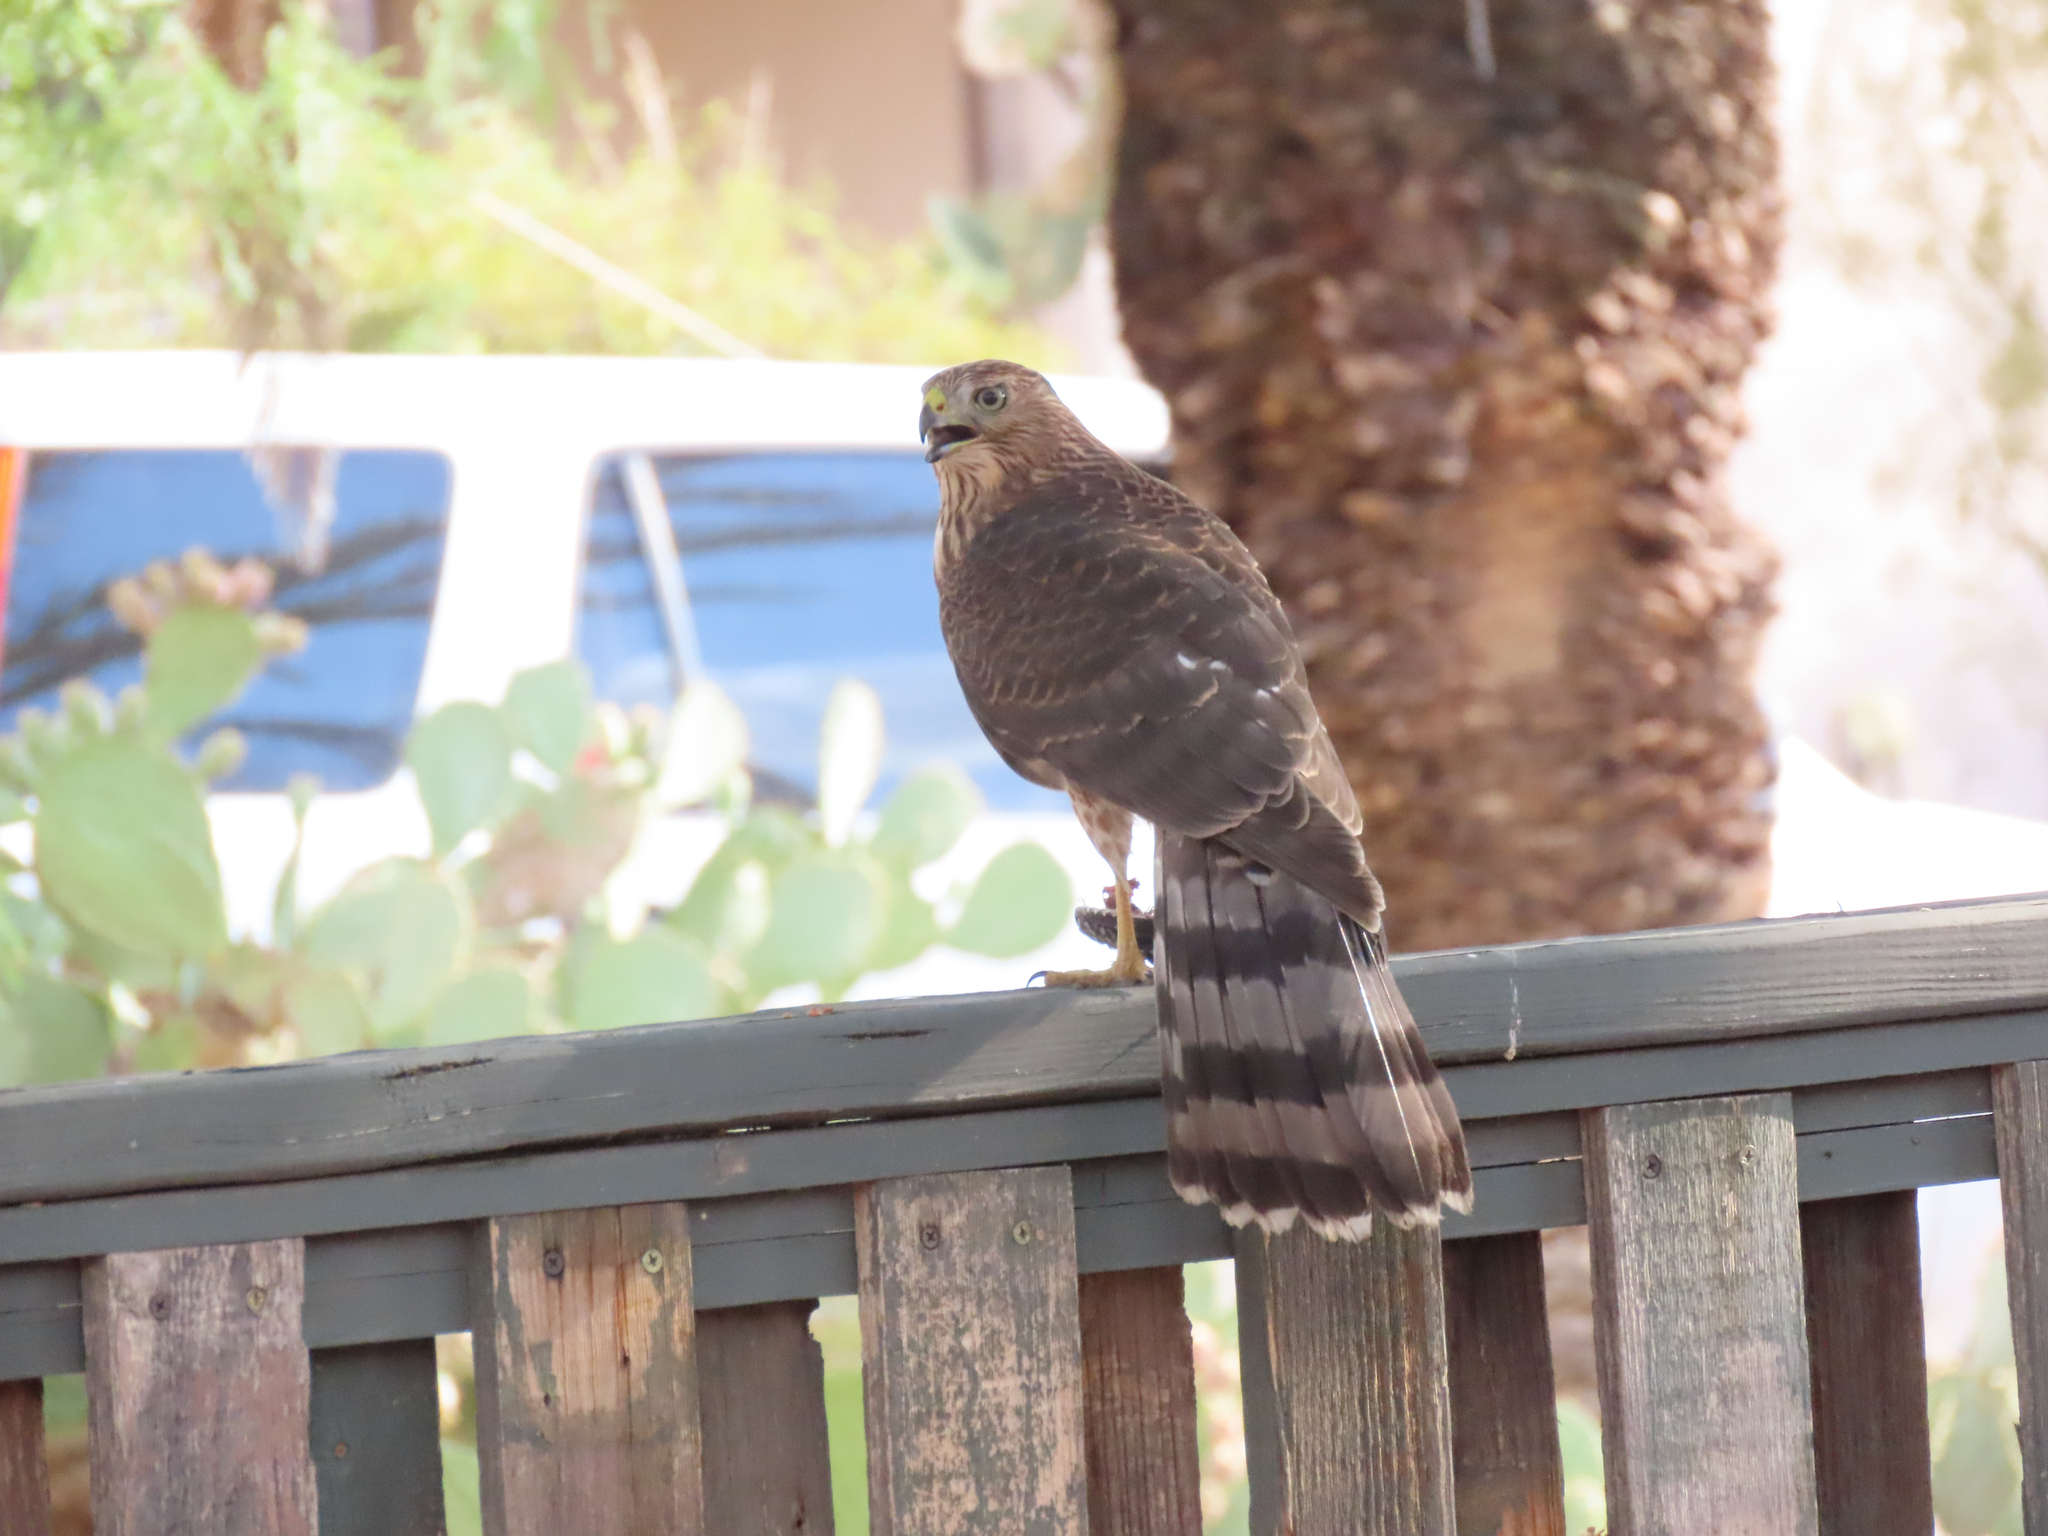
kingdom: Animalia
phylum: Chordata
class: Aves
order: Accipitriformes
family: Accipitridae
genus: Accipiter
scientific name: Accipiter cooperii
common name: Cooper's hawk
